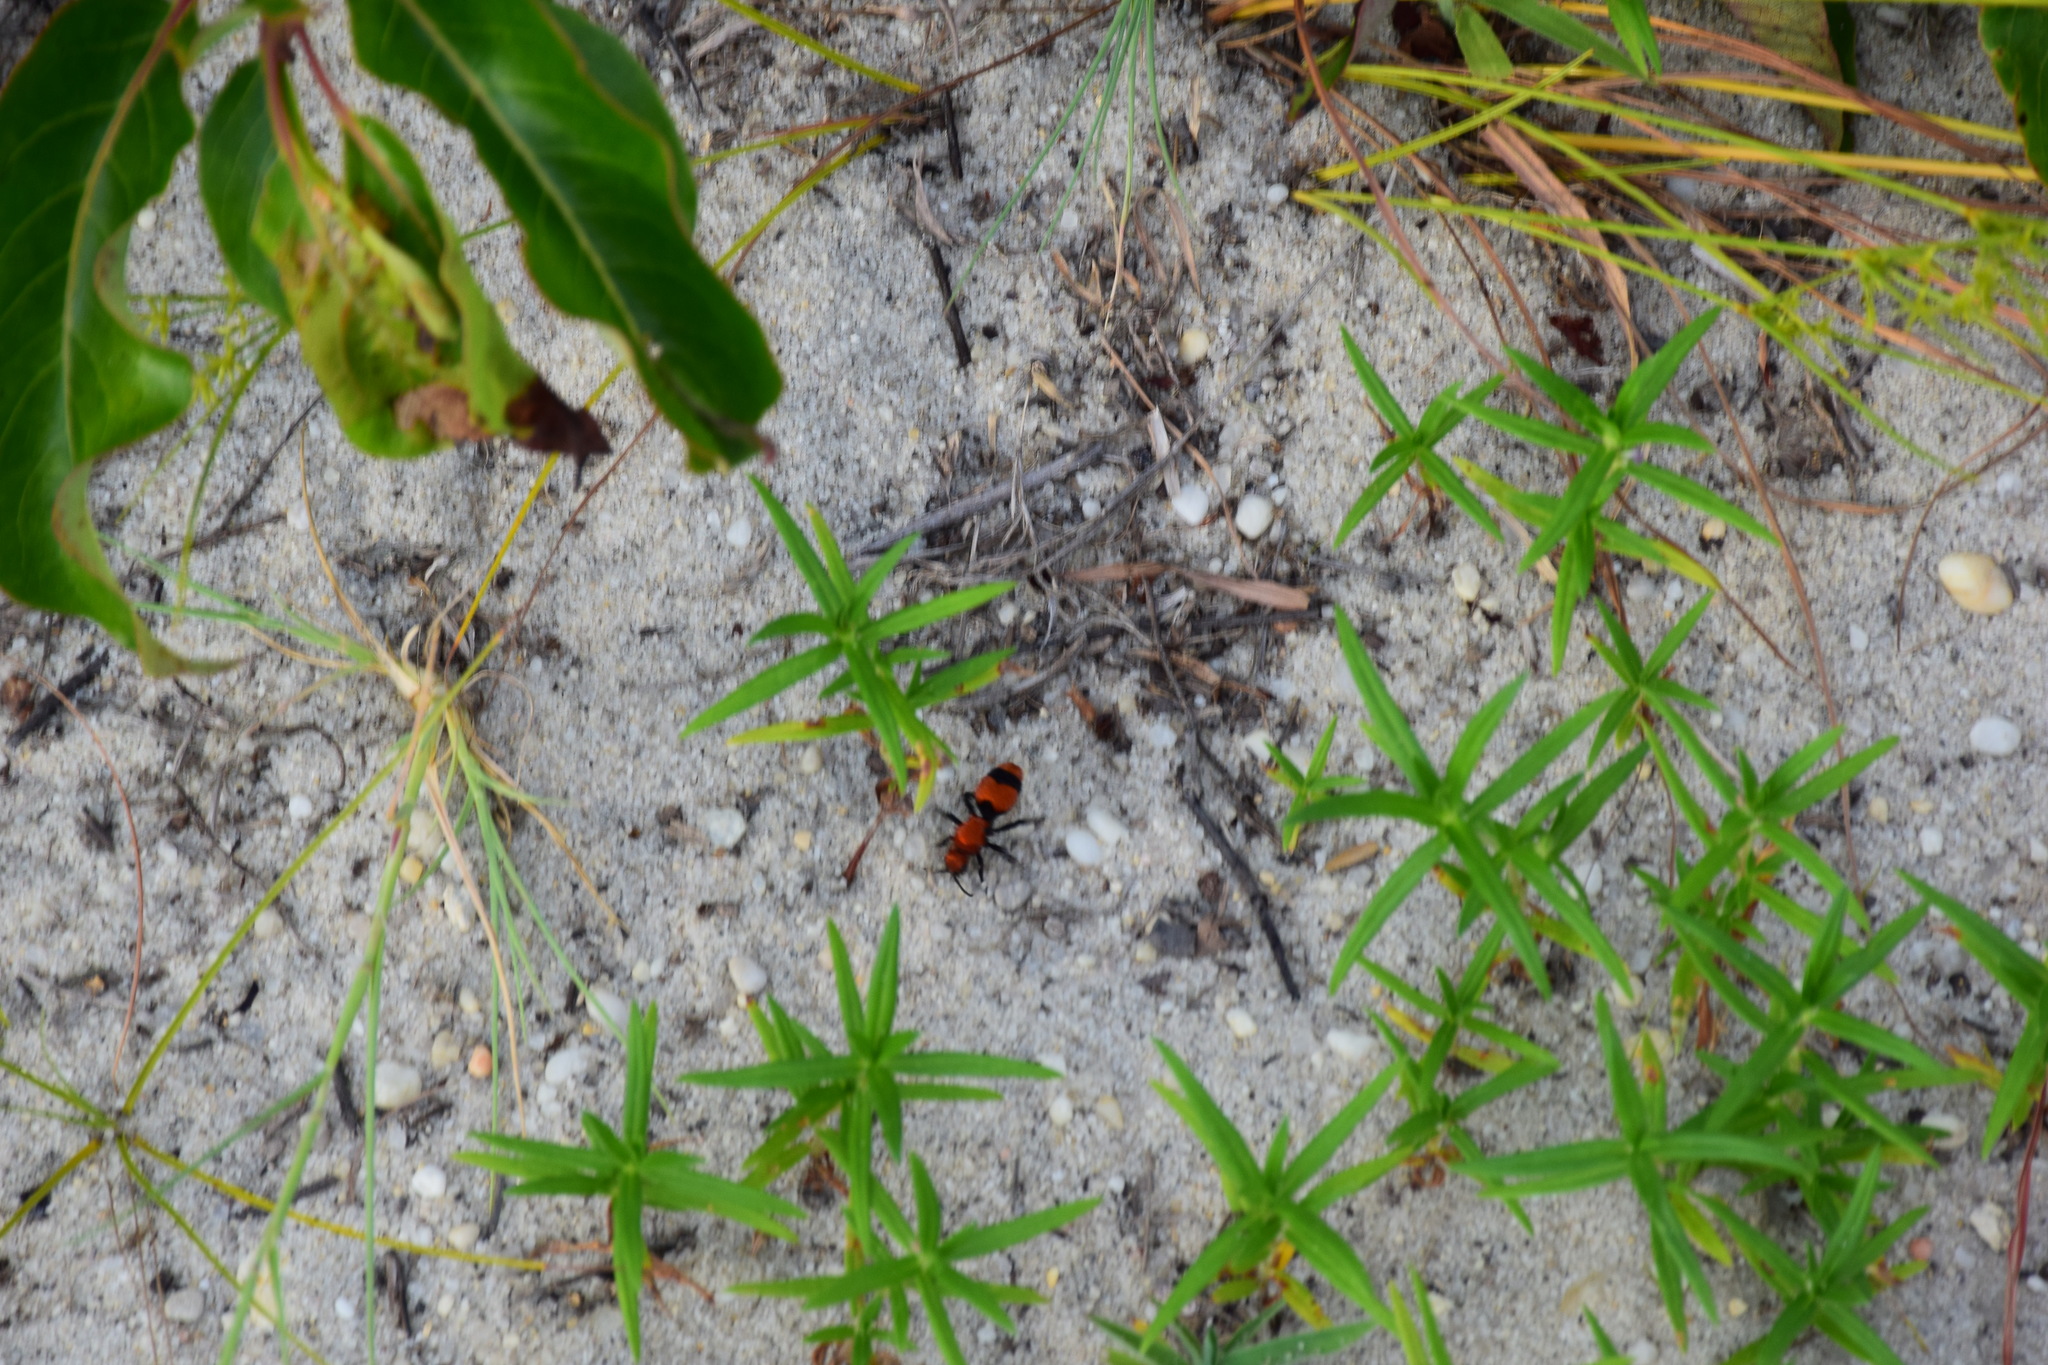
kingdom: Animalia
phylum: Arthropoda
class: Insecta
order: Hymenoptera
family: Mutillidae
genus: Dasymutilla
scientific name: Dasymutilla occidentalis
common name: Common eastern velvet ant
